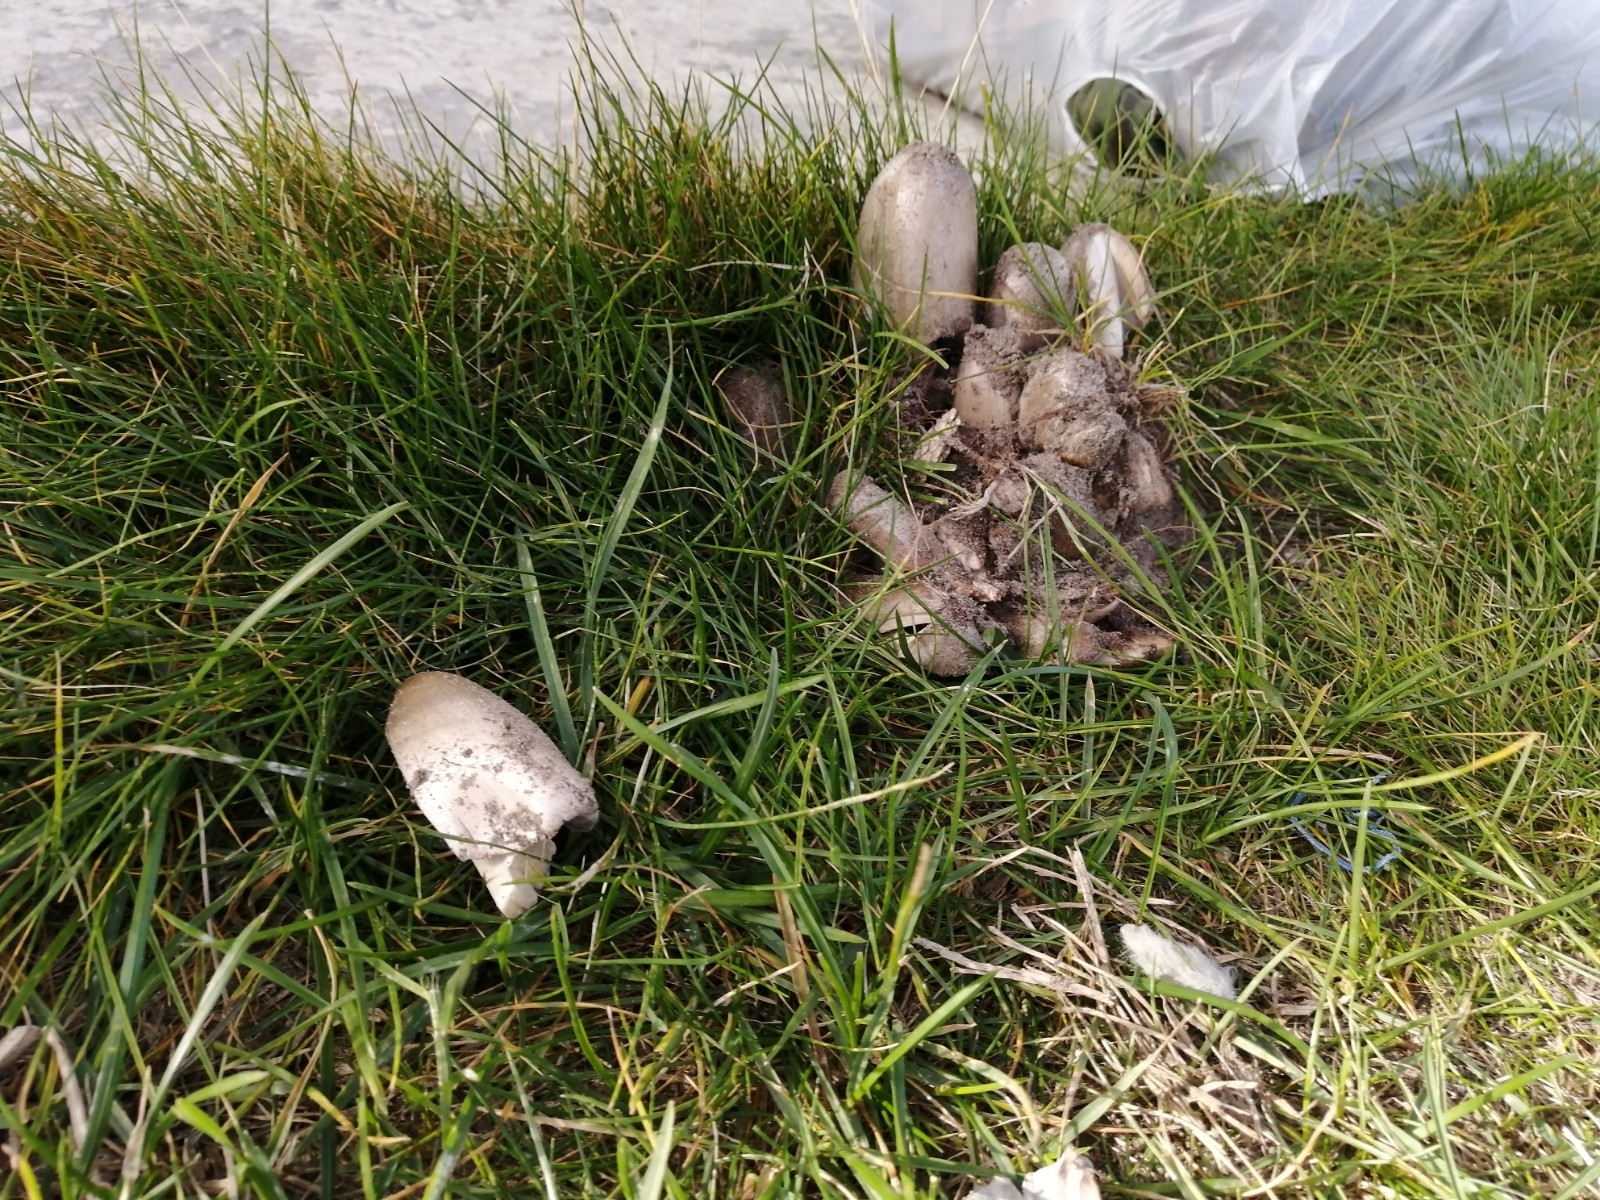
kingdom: Fungi
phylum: Basidiomycota
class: Agaricomycetes
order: Agaricales
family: Psathyrellaceae
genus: Coprinopsis
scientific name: Coprinopsis atramentaria
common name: Common ink-cap
